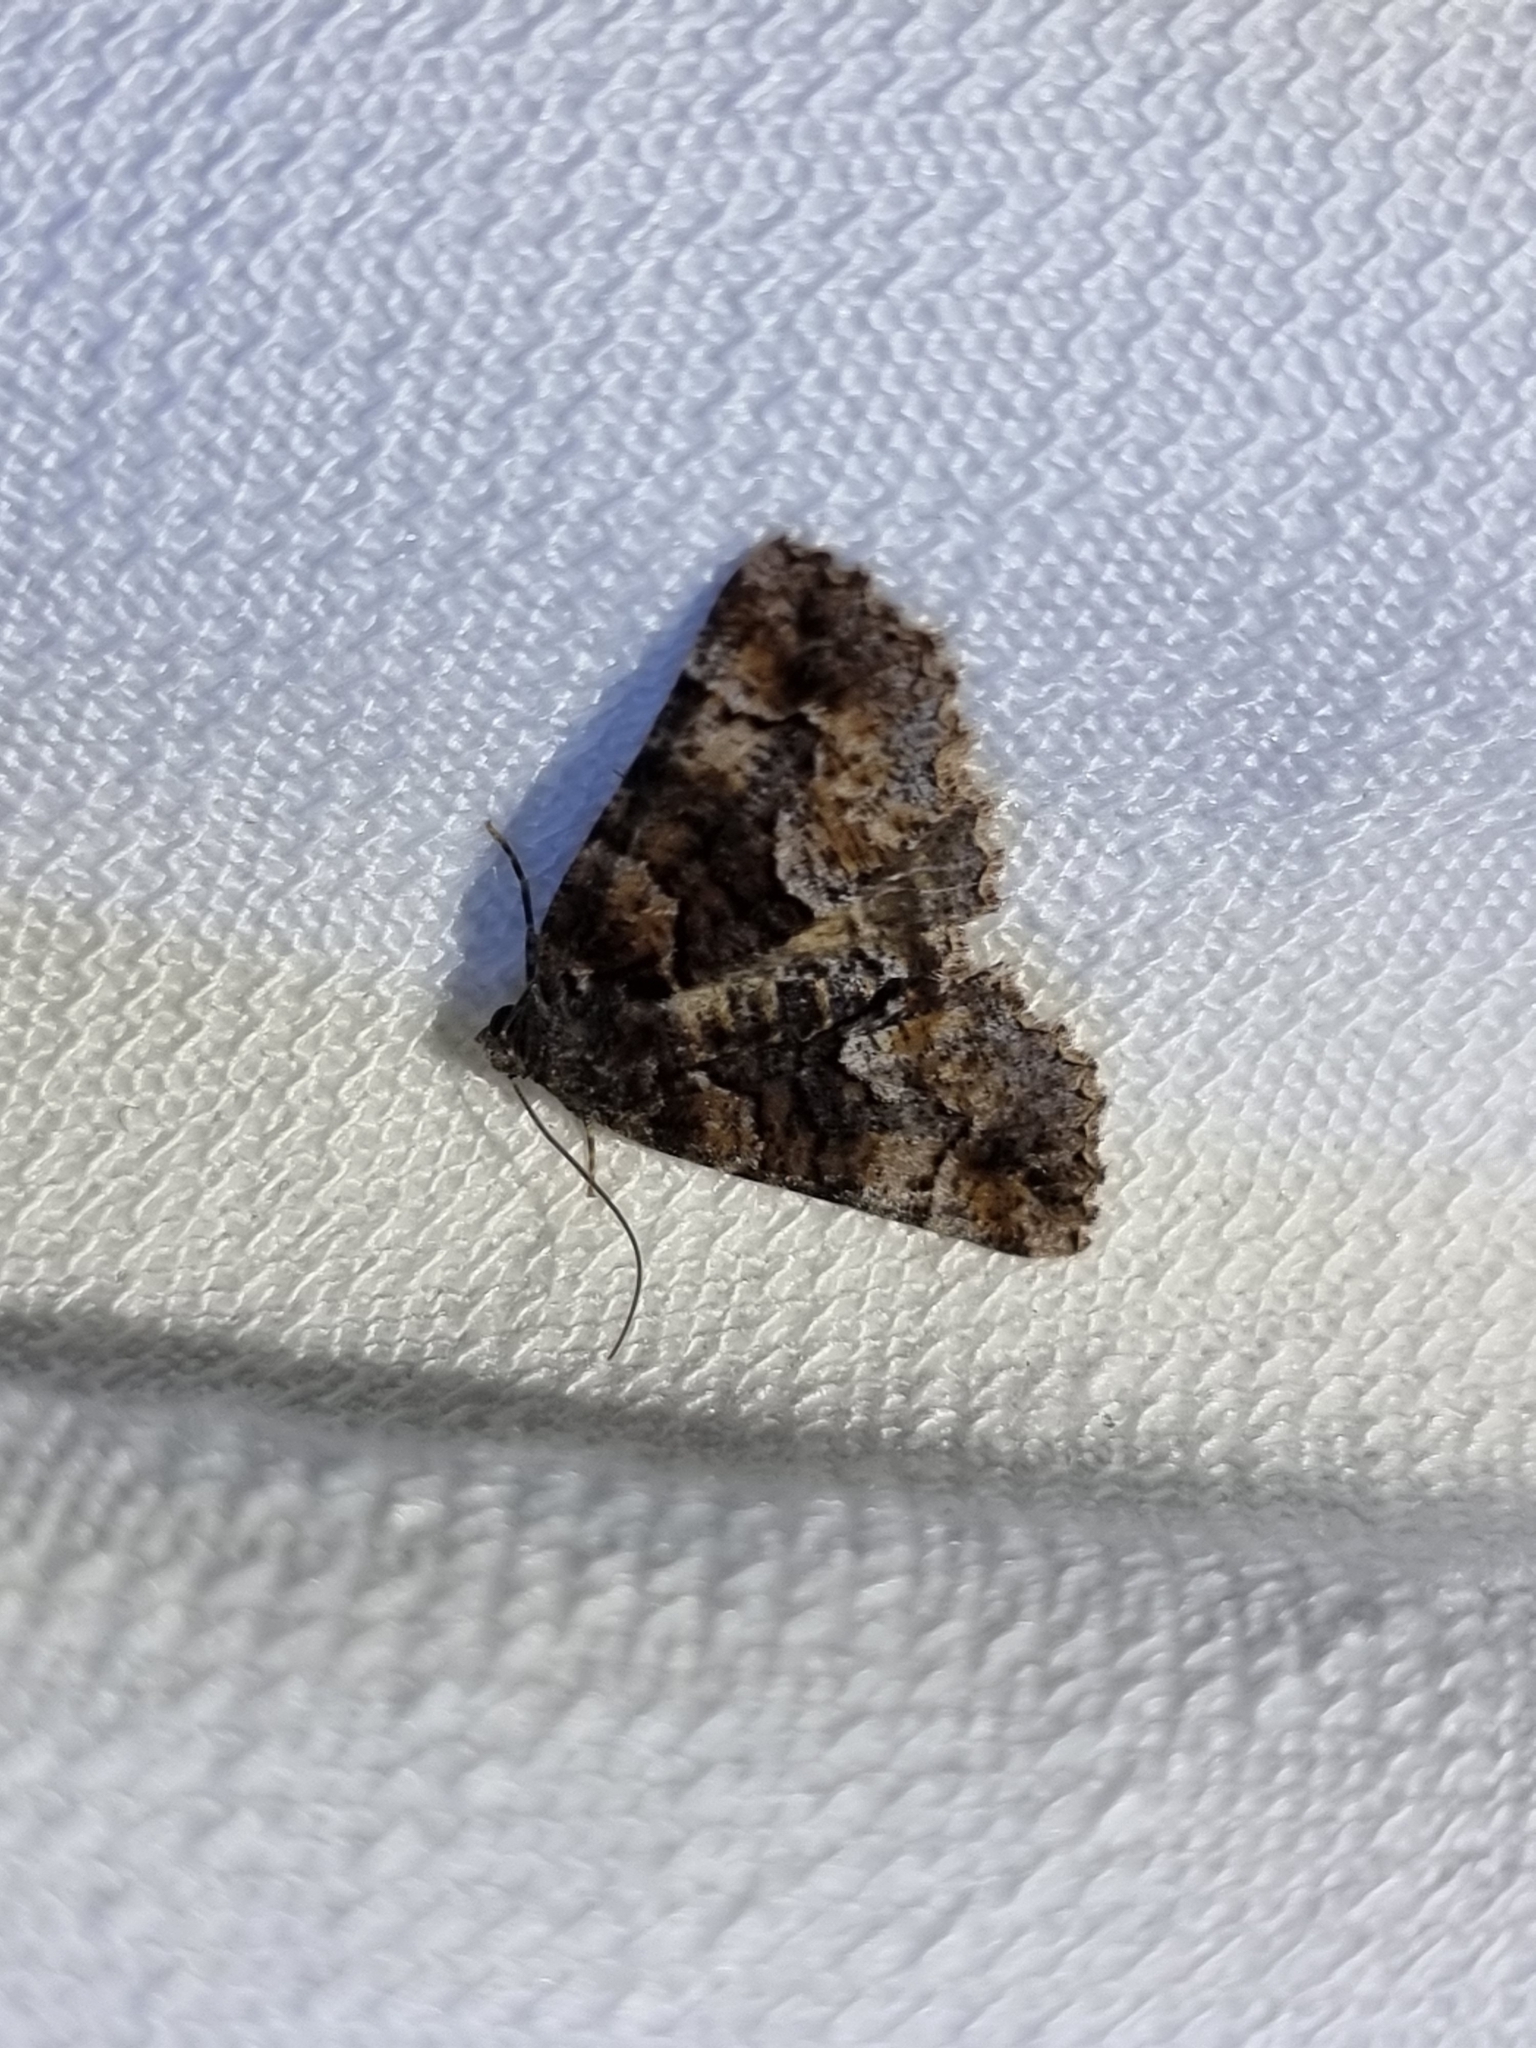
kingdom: Animalia
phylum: Arthropoda
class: Insecta
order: Lepidoptera
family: Geometridae
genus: Gastrina
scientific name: Gastrina cristaria
